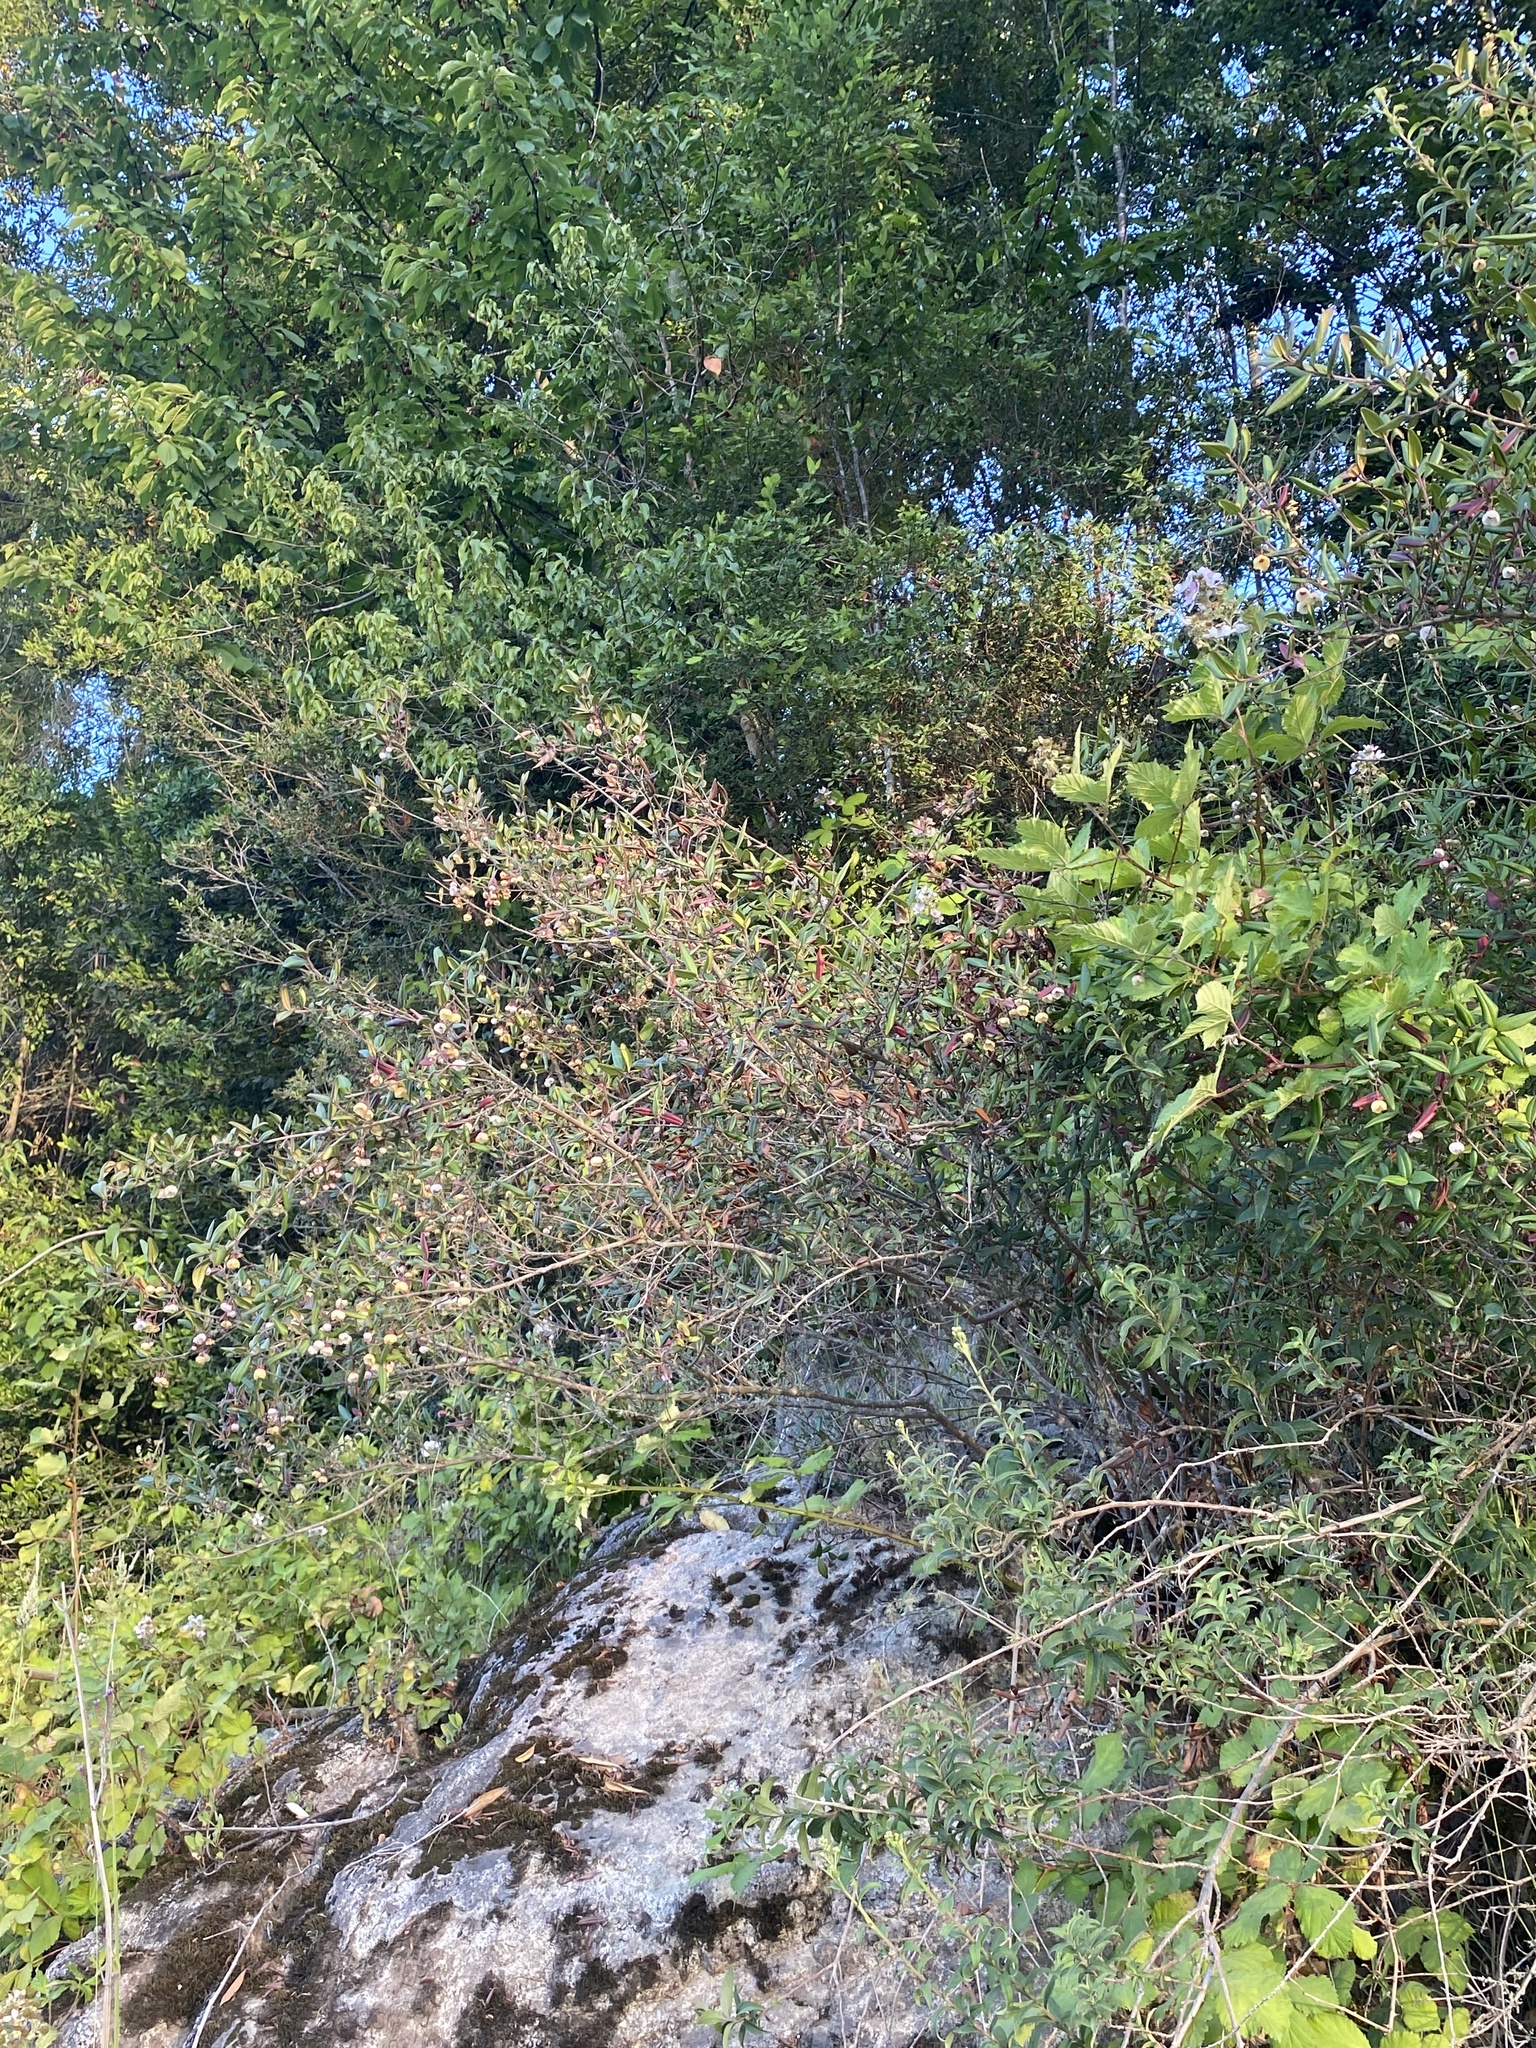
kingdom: Plantae
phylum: Tracheophyta
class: Magnoliopsida
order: Myrtales
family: Myrtaceae
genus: Ugni
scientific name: Ugni molinae
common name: Chilean-guava
